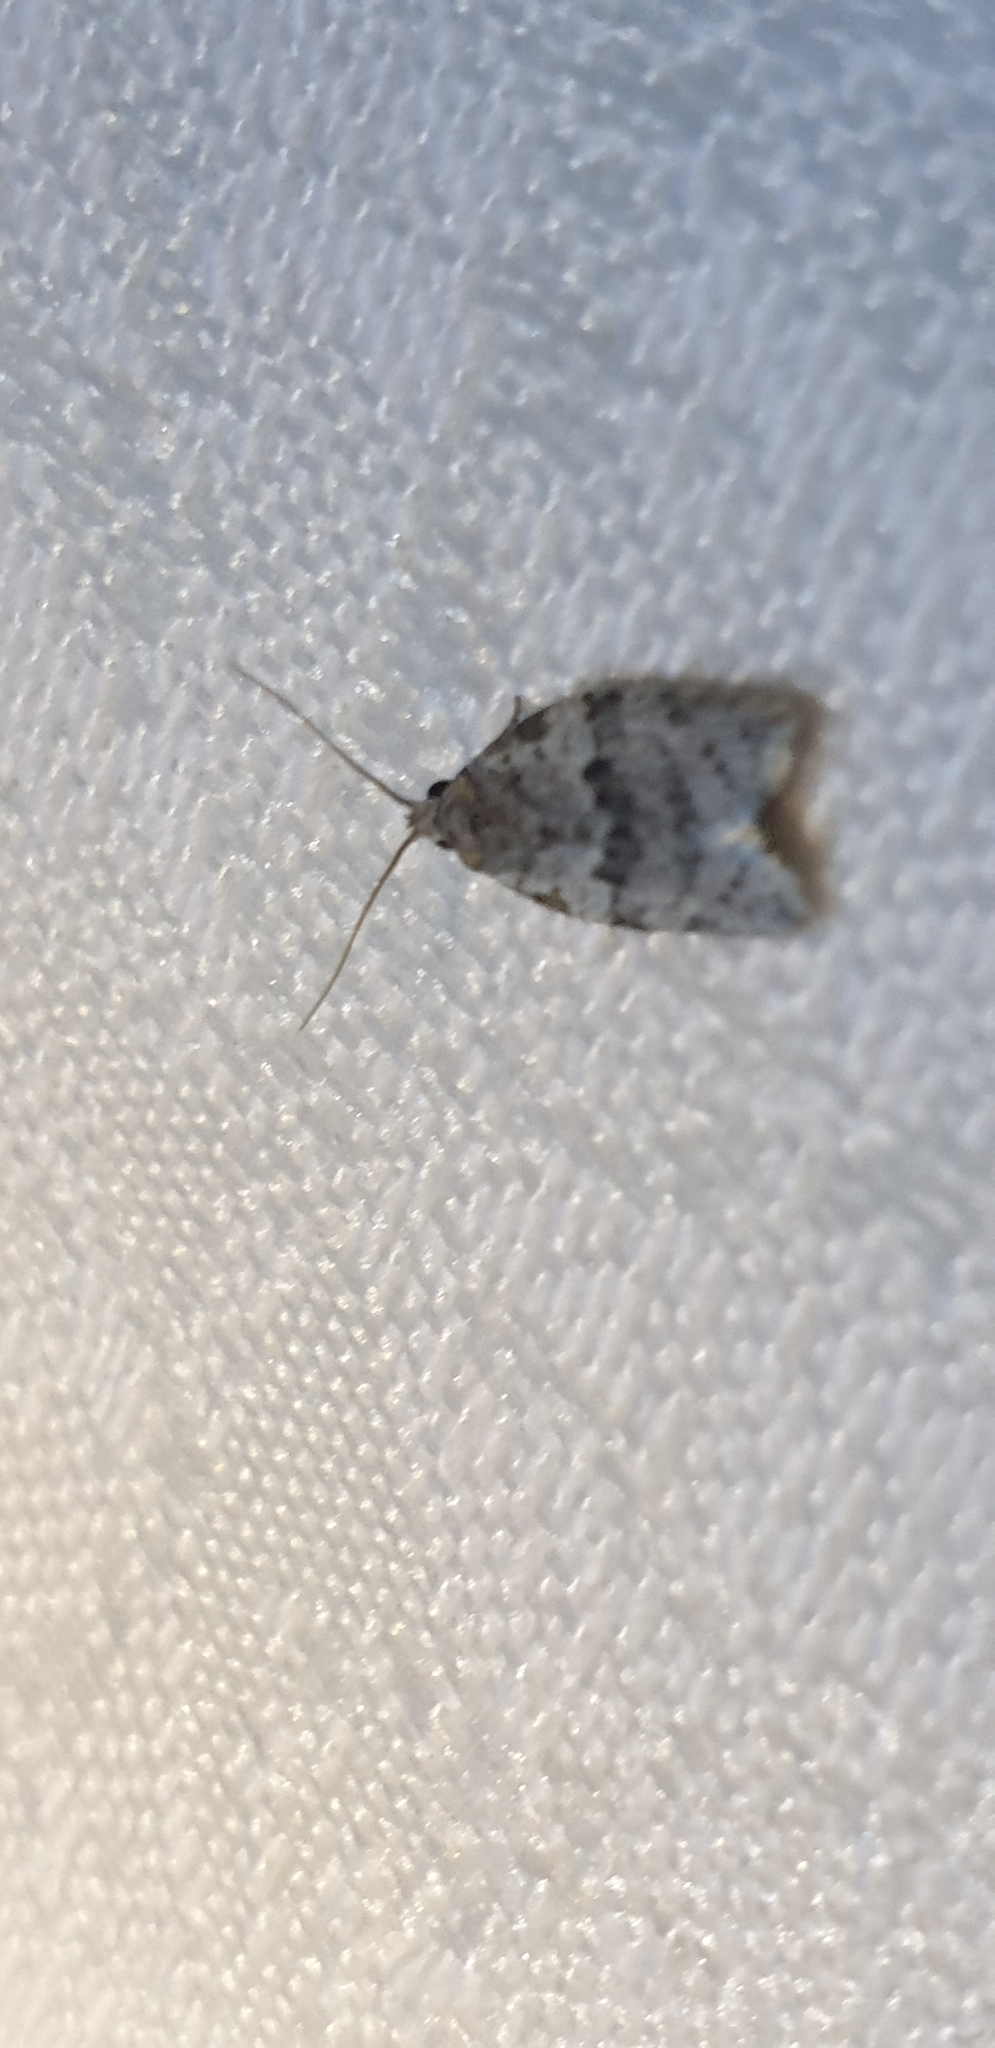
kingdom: Animalia
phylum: Arthropoda
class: Insecta
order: Lepidoptera
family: Tortricidae
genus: Isotenes
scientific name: Isotenes miserana
